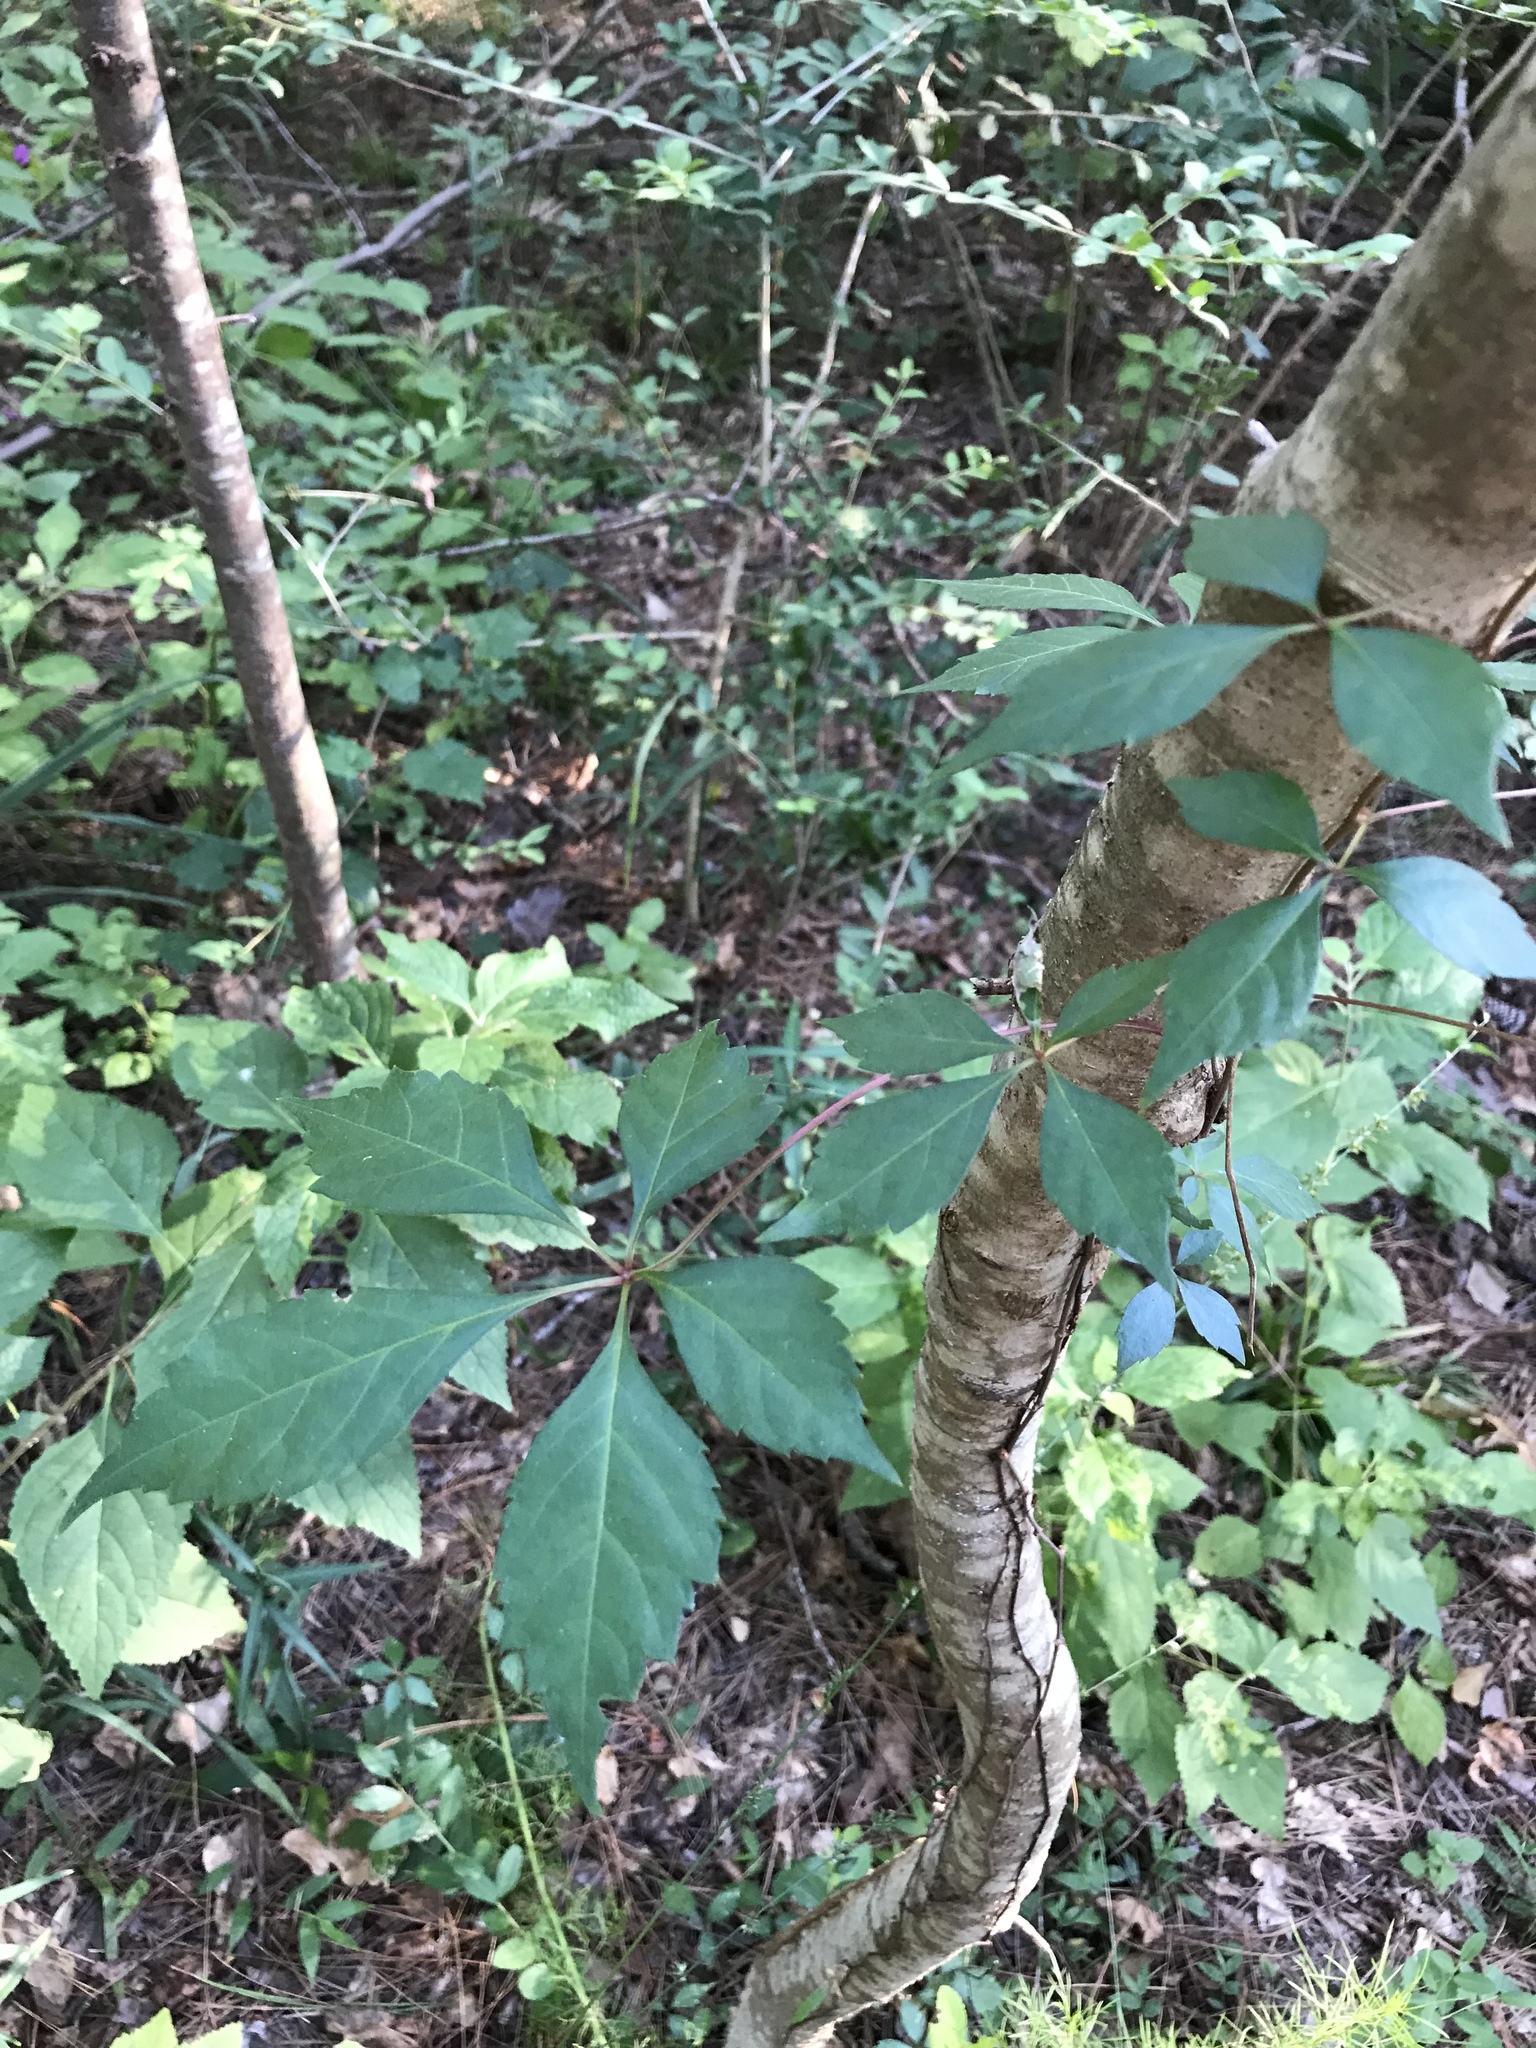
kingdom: Plantae
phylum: Tracheophyta
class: Magnoliopsida
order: Vitales
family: Vitaceae
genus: Parthenocissus
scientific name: Parthenocissus quinquefolia
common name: Virginia-creeper
